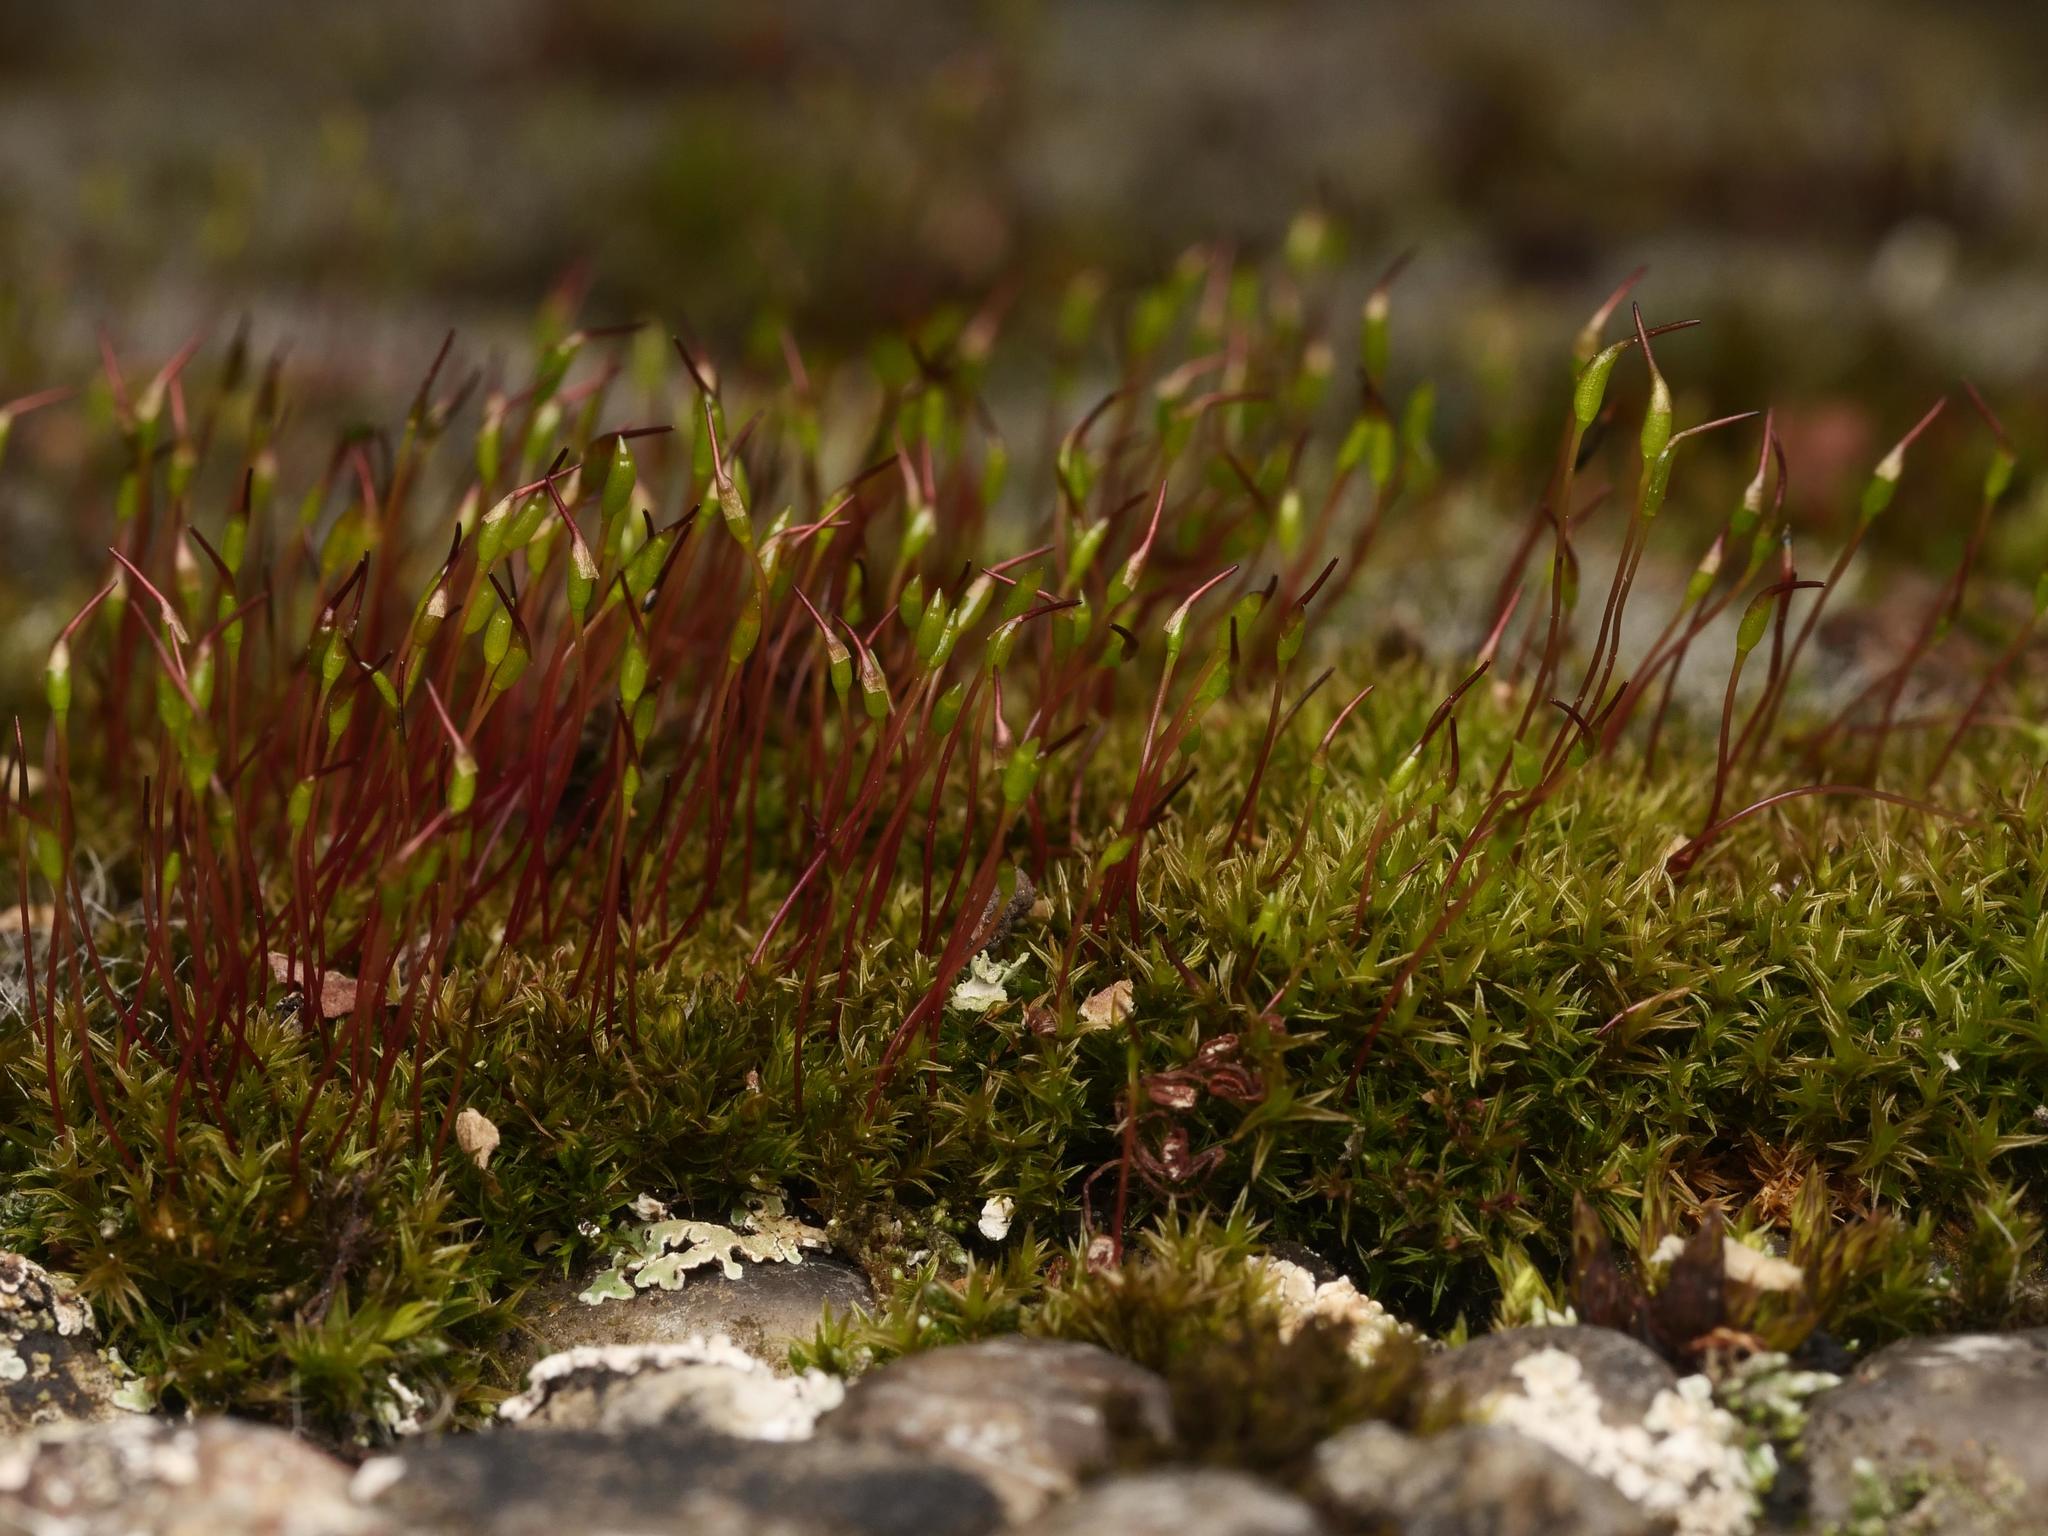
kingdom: Plantae
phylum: Bryophyta
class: Bryopsida
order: Dicranales
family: Ditrichaceae
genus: Ceratodon
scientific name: Ceratodon purpureus
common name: Redshank
